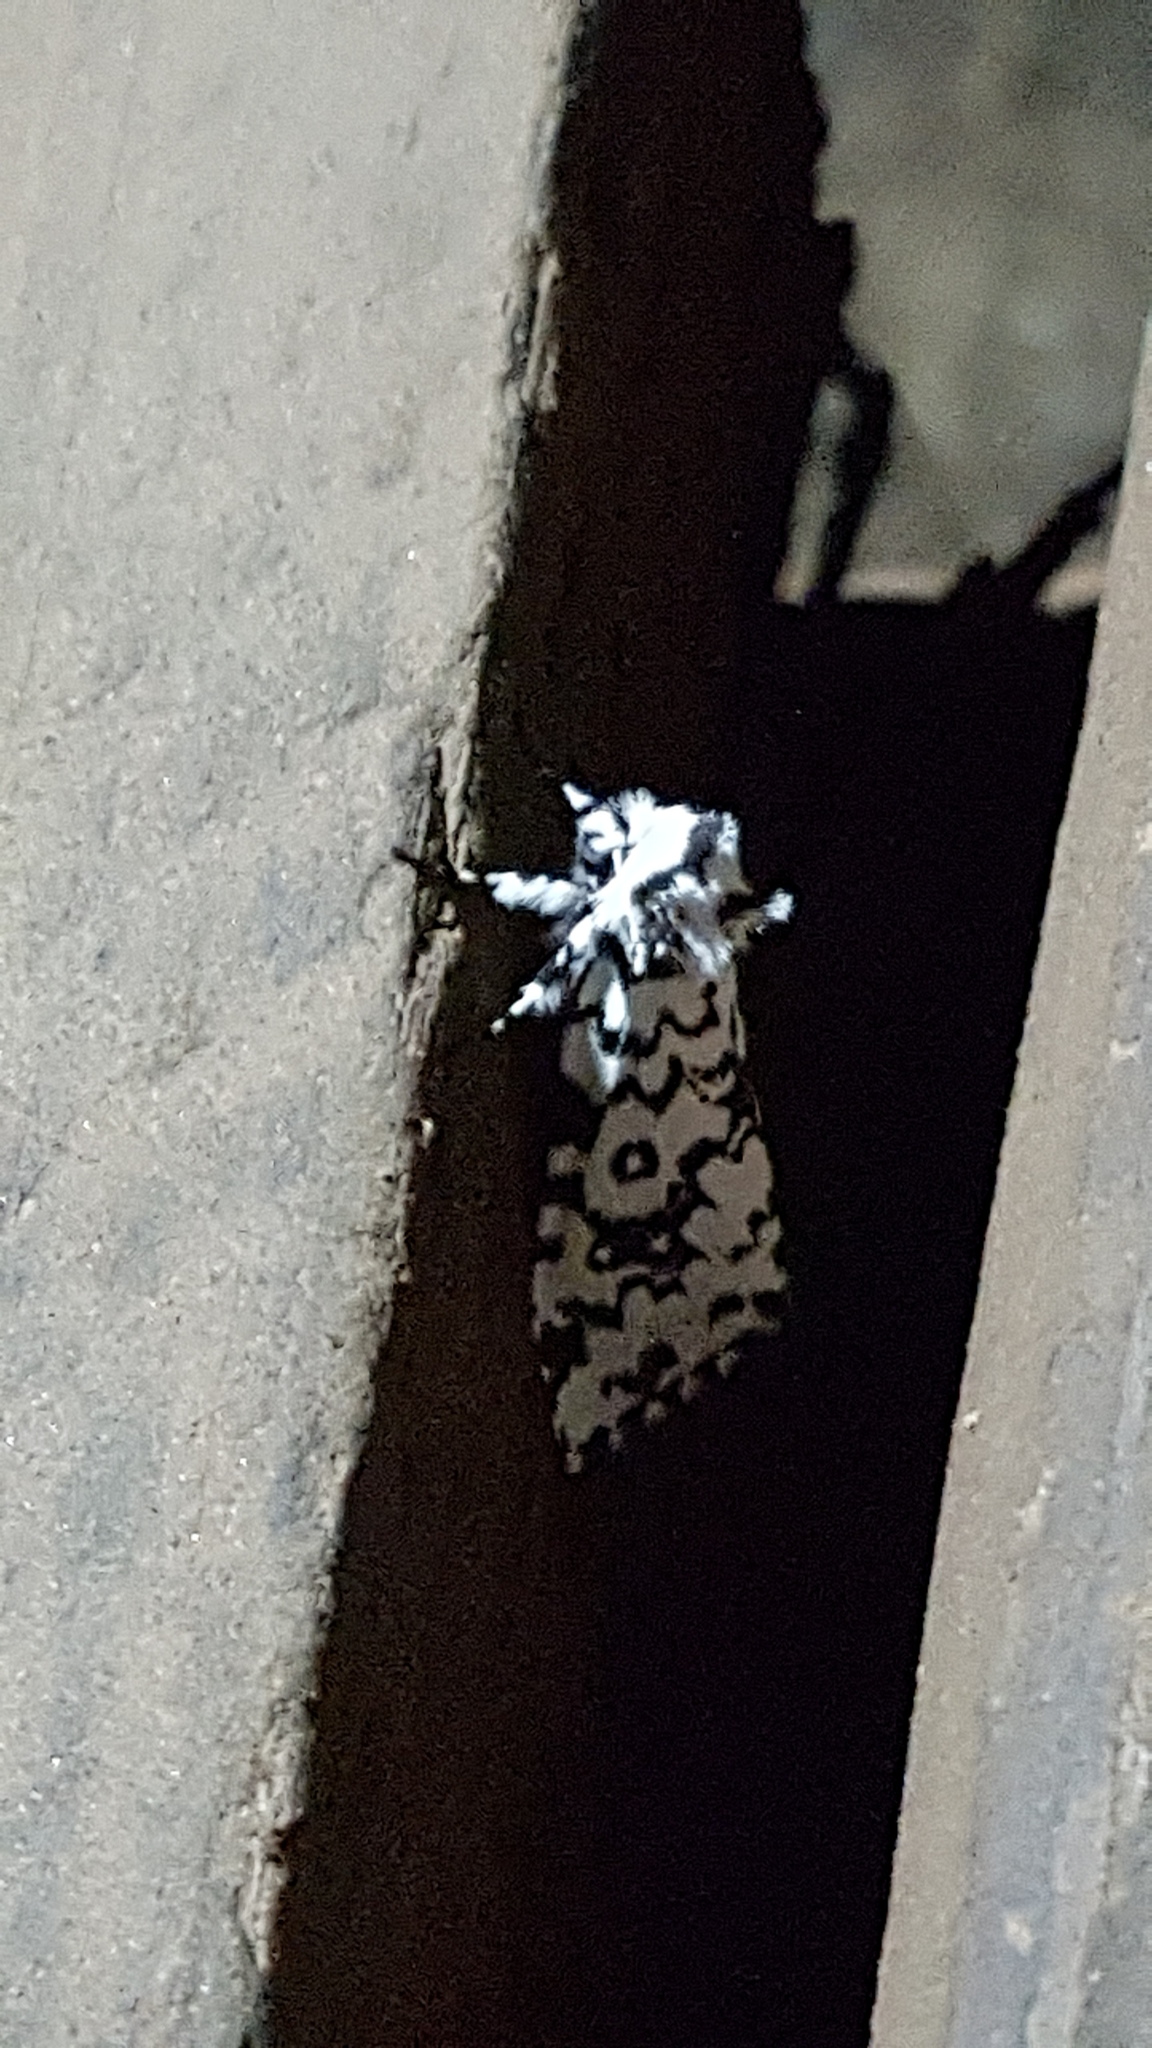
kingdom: Animalia
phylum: Arthropoda
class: Insecta
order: Lepidoptera
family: Erebidae
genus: Dasychira
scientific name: Dasychira octophora
